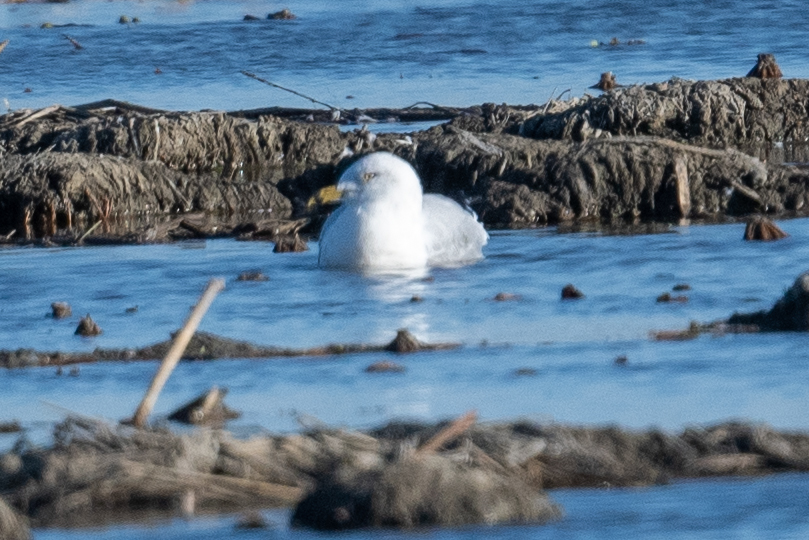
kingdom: Animalia
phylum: Chordata
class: Aves
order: Charadriiformes
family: Laridae
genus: Larus
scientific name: Larus delawarensis
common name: Ring-billed gull
